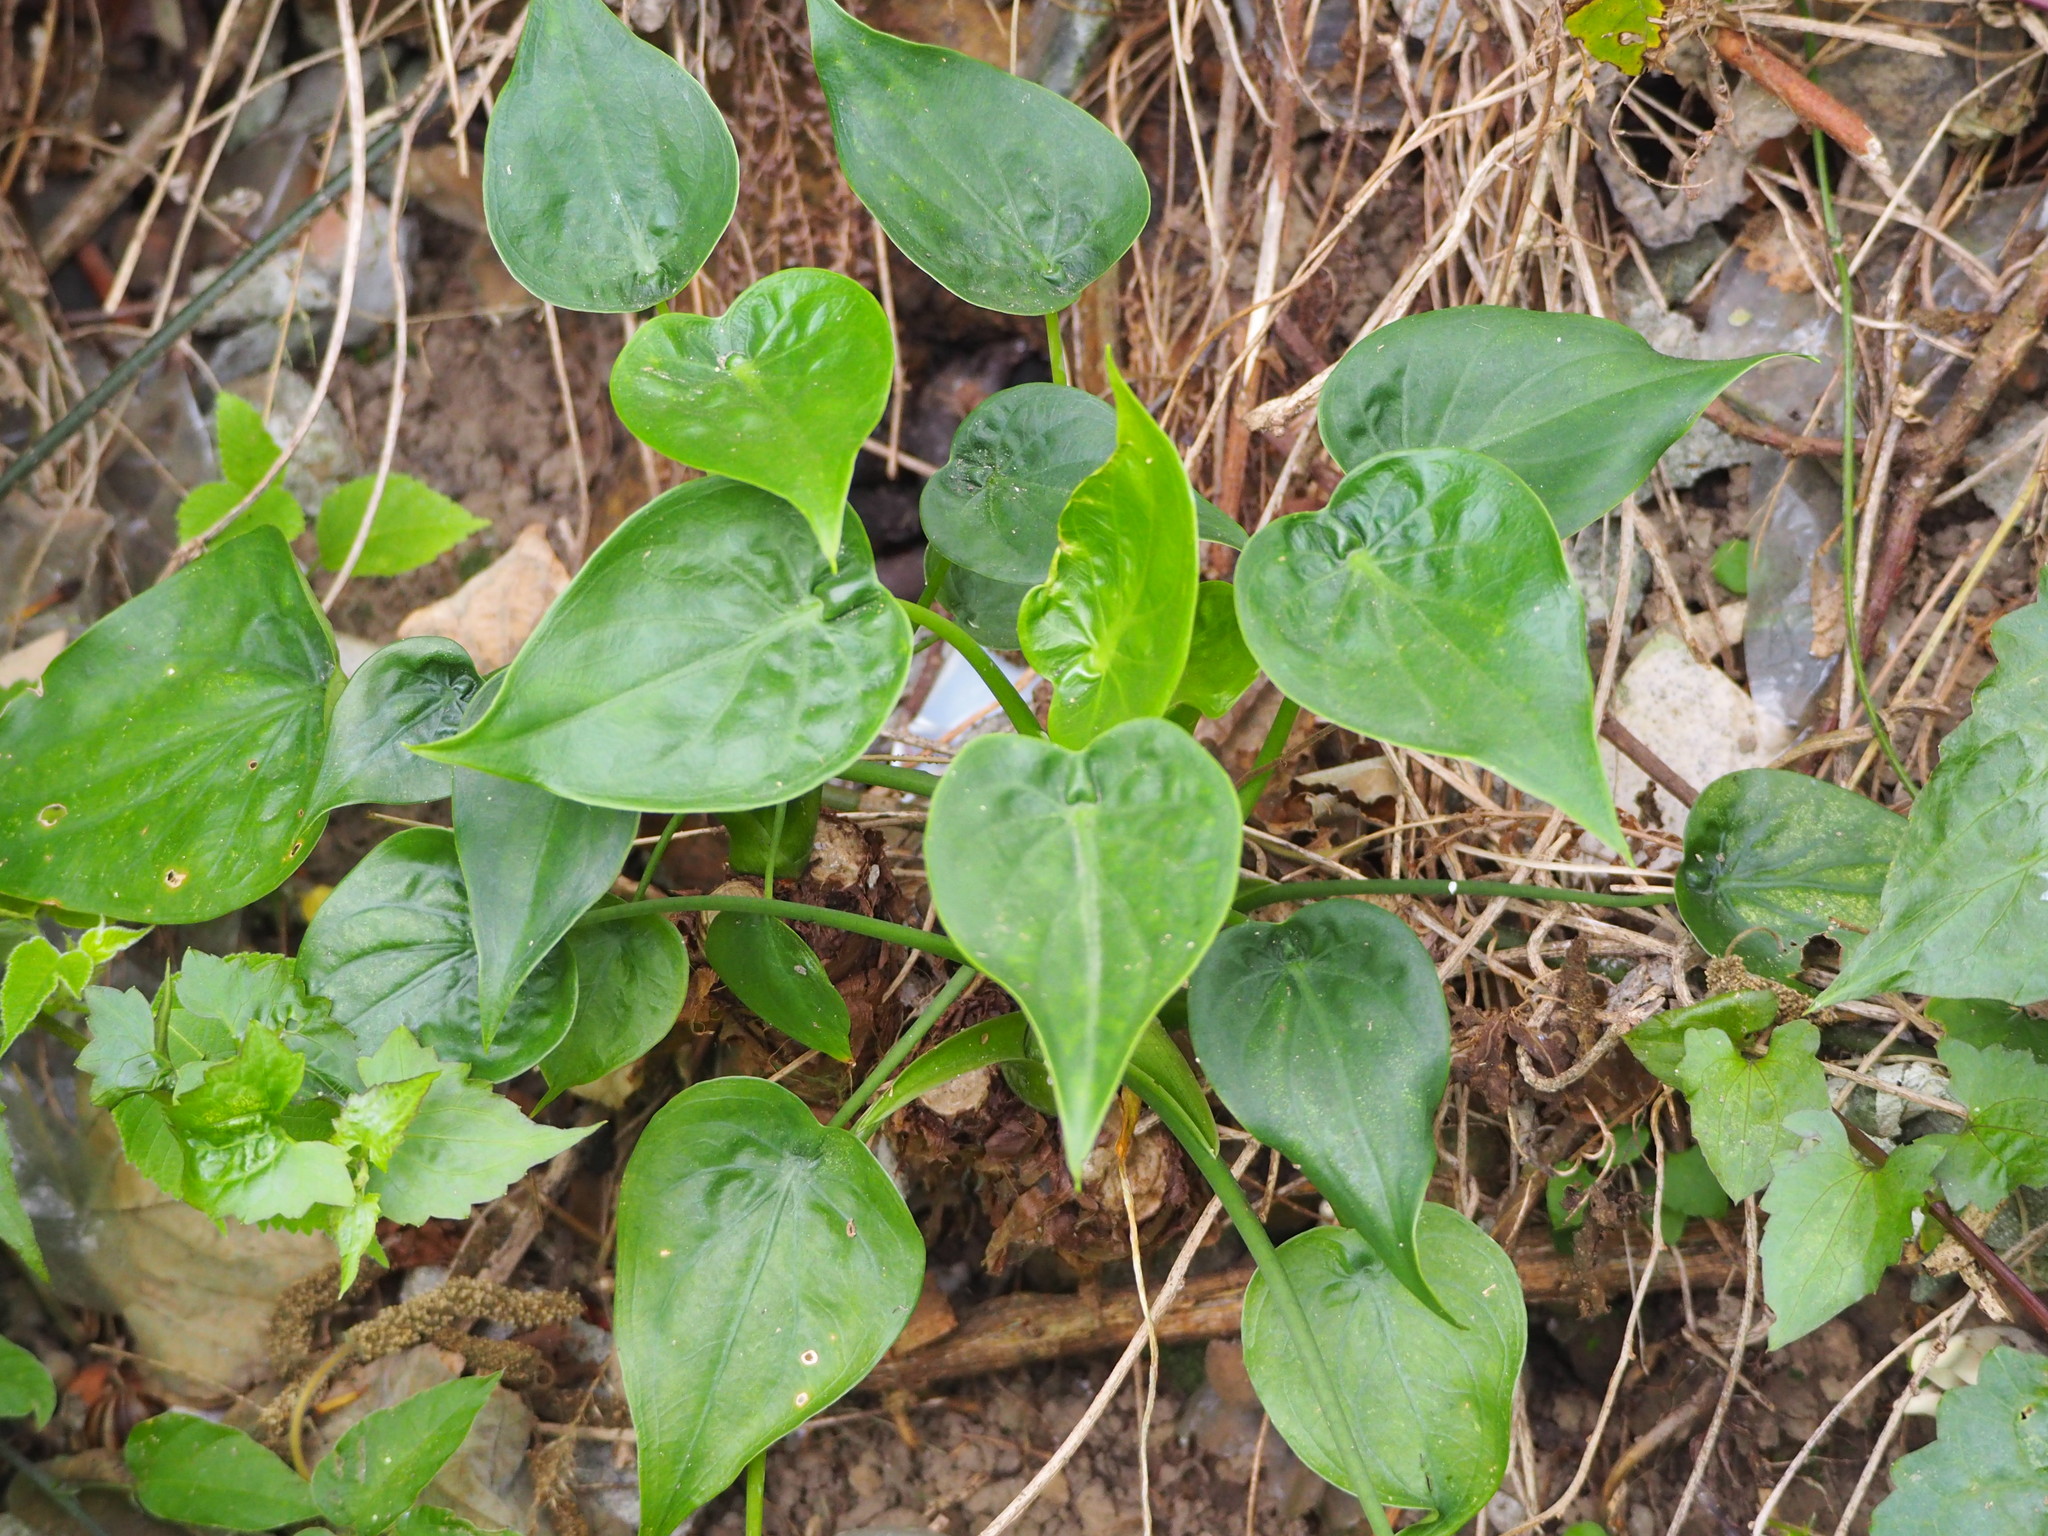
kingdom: Plantae
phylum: Tracheophyta
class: Liliopsida
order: Alismatales
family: Araceae
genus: Alocasia
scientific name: Alocasia cucullata
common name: Buddha's hand
